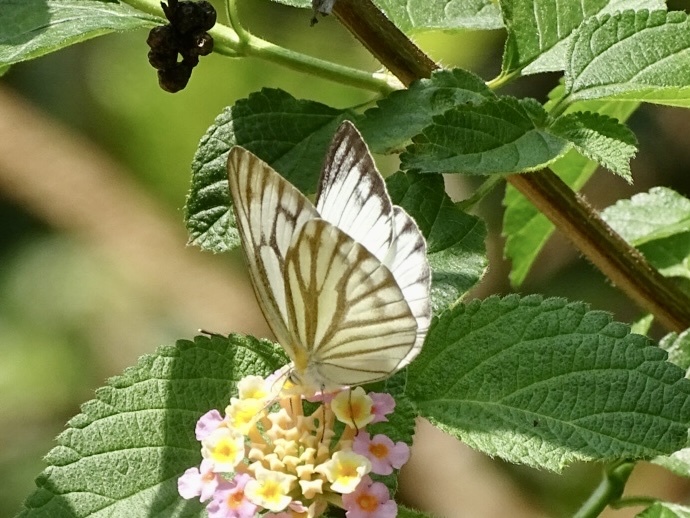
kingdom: Animalia
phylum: Arthropoda
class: Insecta
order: Lepidoptera
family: Pieridae
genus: Cepora
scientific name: Cepora nerissa
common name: Common gull
